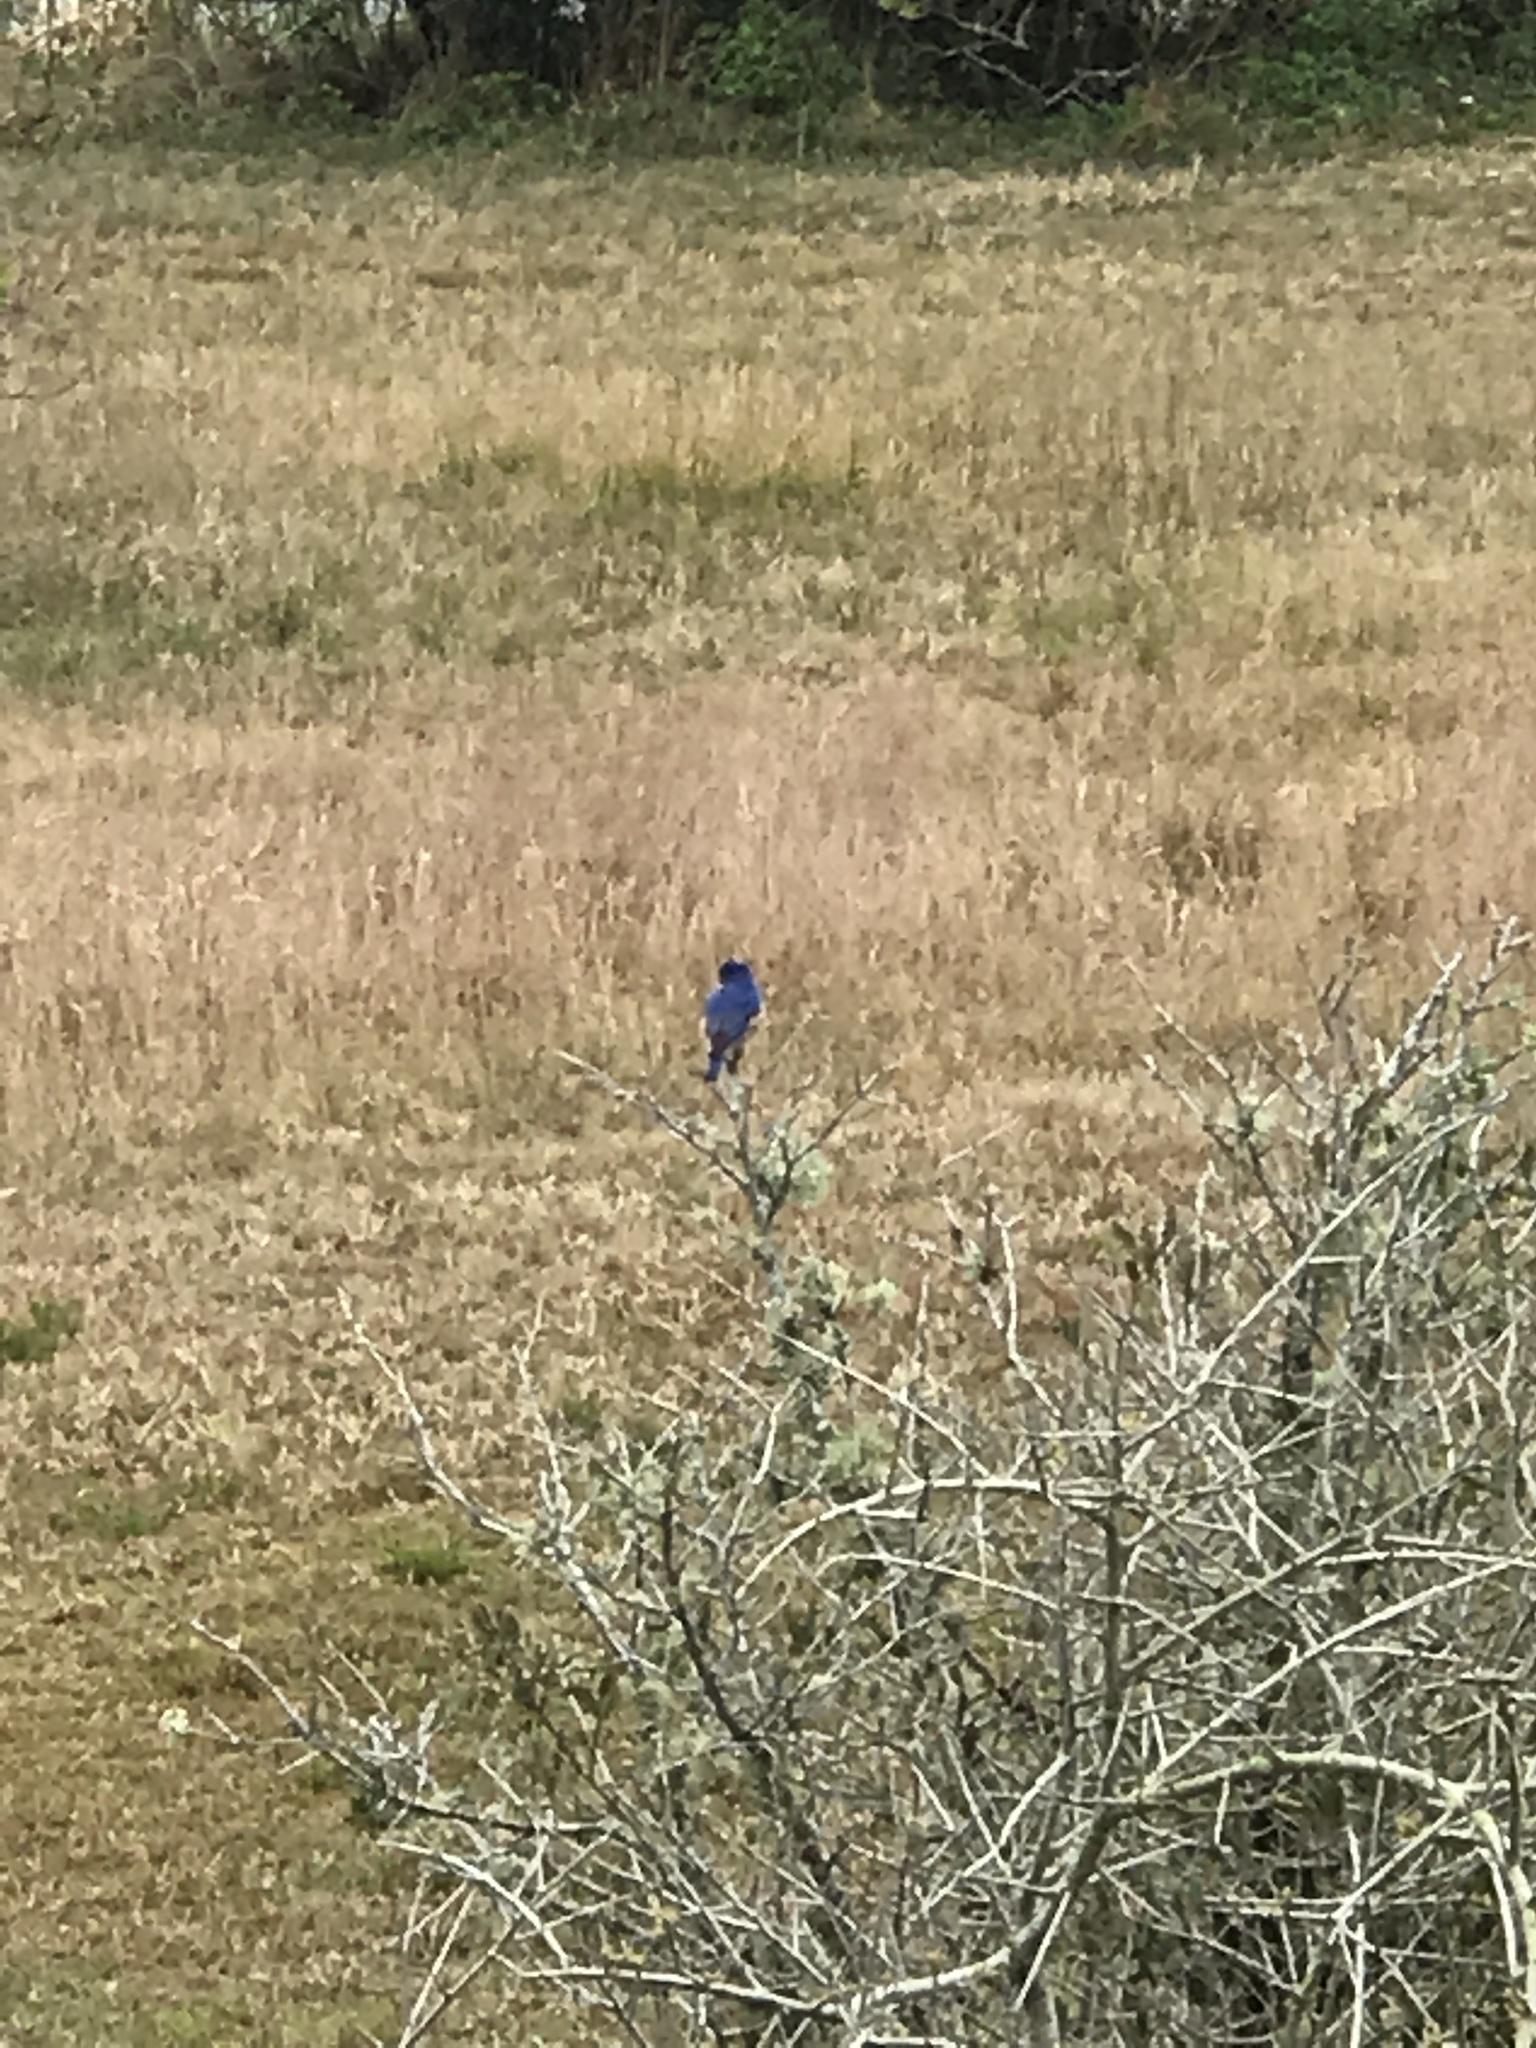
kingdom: Animalia
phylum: Chordata
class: Aves
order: Passeriformes
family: Turdidae
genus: Sialia
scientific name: Sialia sialis
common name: Eastern bluebird
